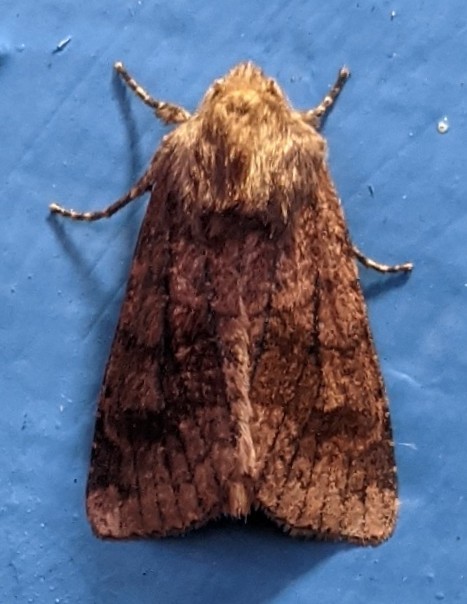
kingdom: Animalia
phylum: Arthropoda
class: Insecta
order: Lepidoptera
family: Noctuidae
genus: Nephelodes
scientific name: Nephelodes minians
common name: Bronzed cutworm
